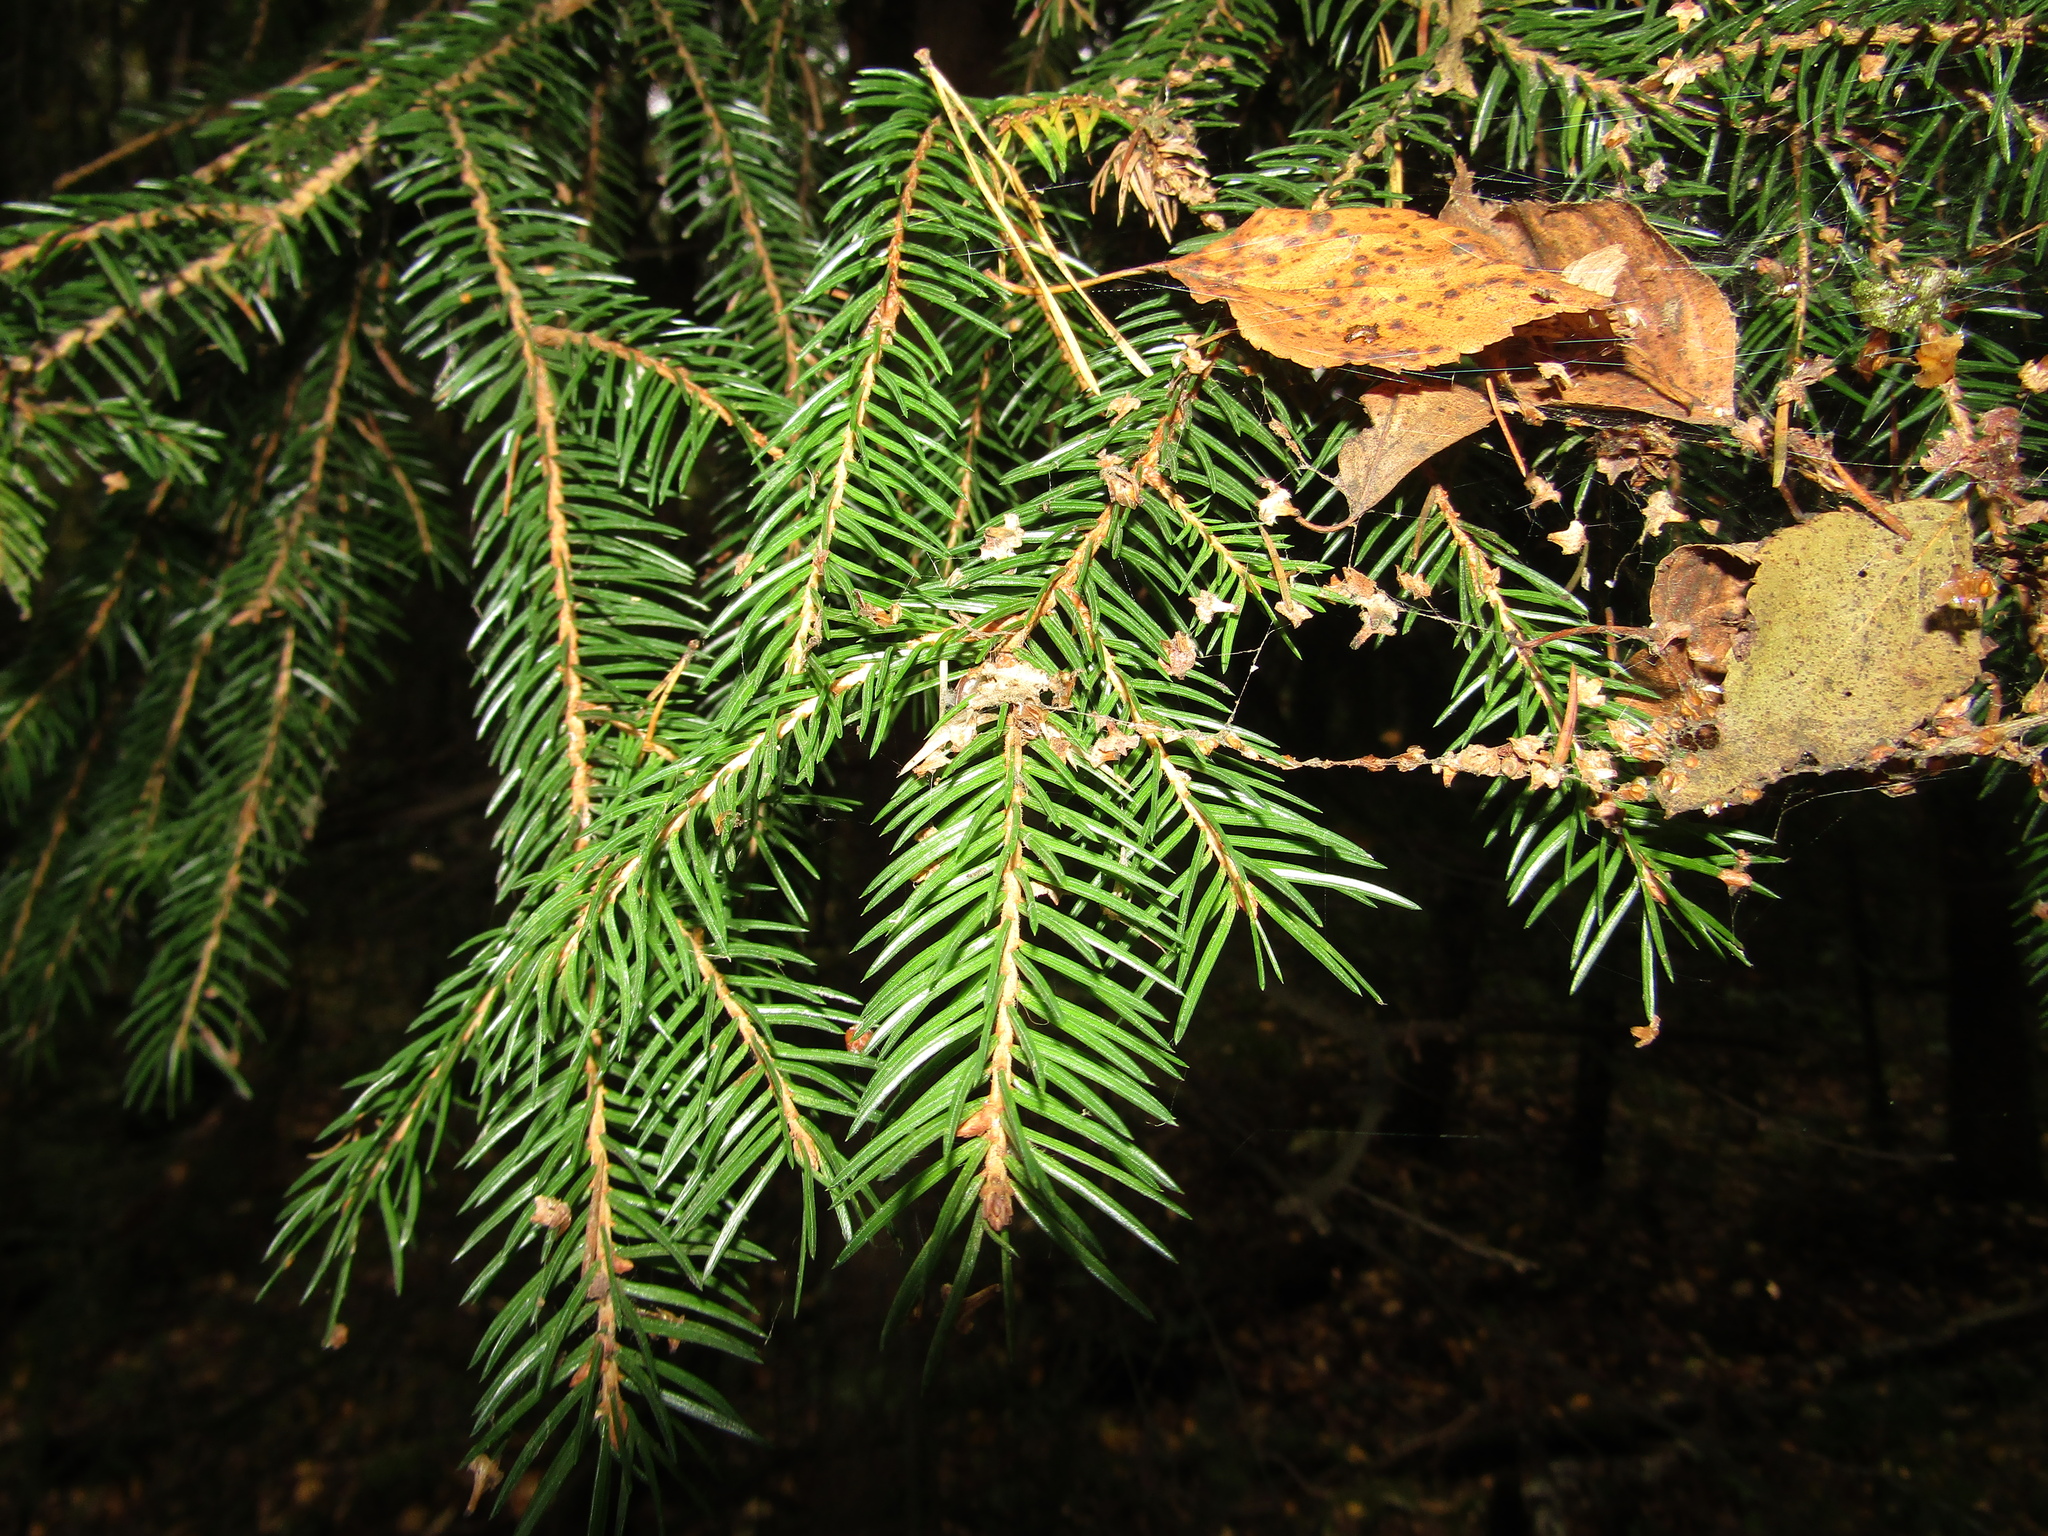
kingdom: Plantae
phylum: Tracheophyta
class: Pinopsida
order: Pinales
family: Pinaceae
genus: Picea
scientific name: Picea abies
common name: Norway spruce
